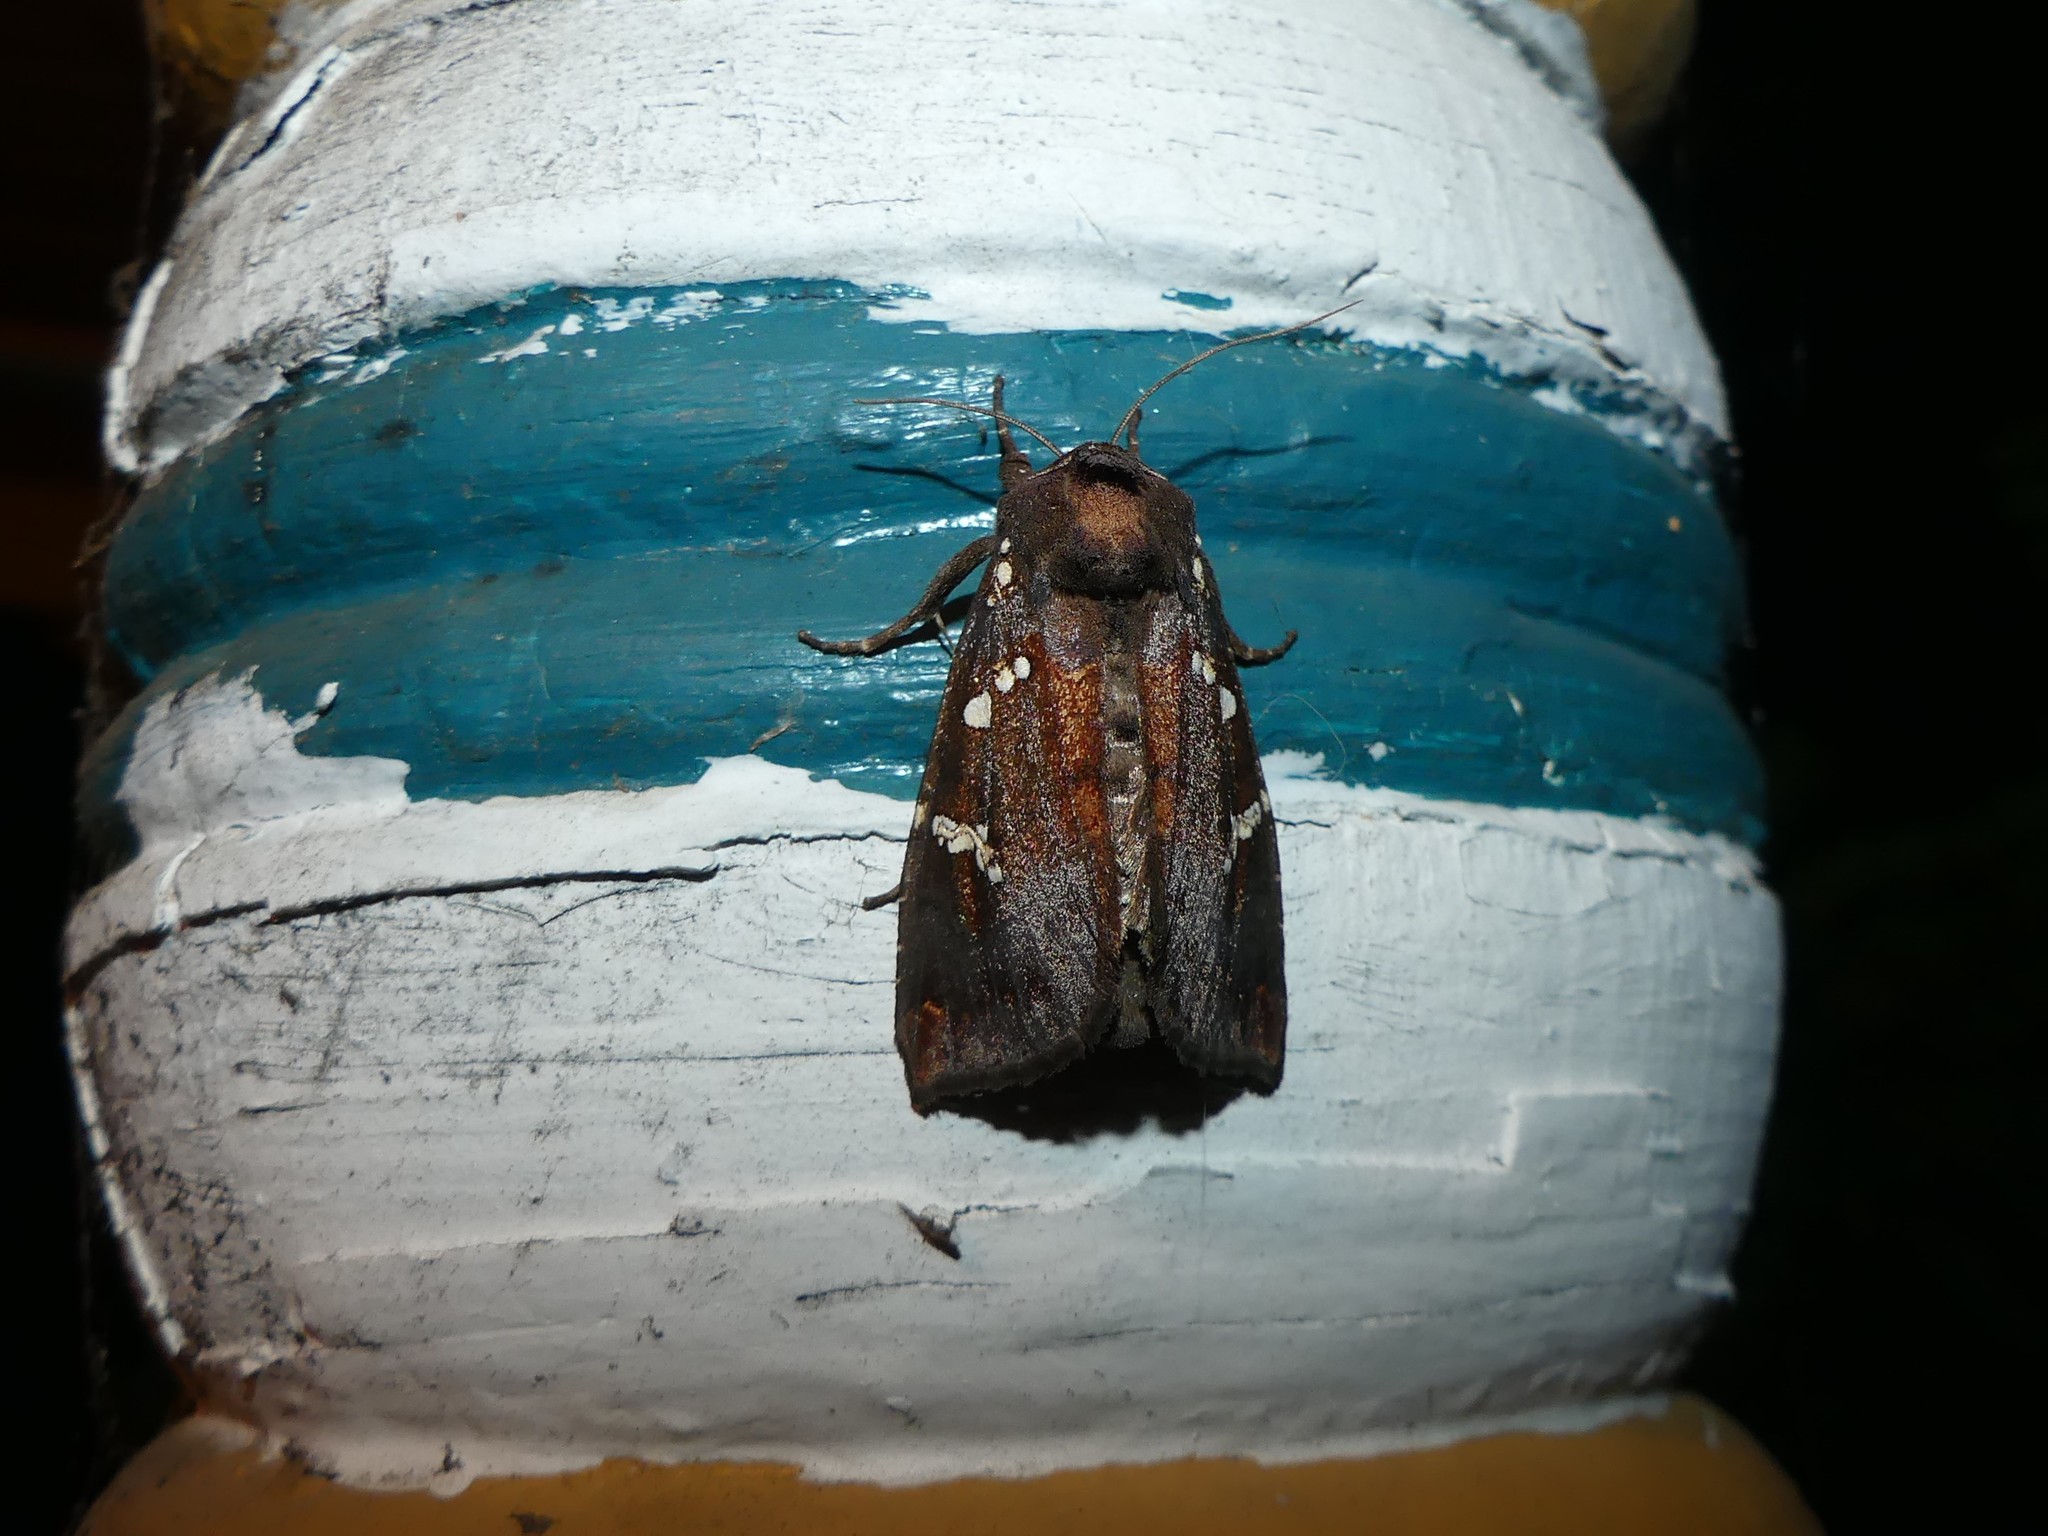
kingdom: Animalia
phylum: Arthropoda
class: Insecta
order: Lepidoptera
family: Noctuidae
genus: Papaipema
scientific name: Papaipema cerussata
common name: Ironweed borer moth
